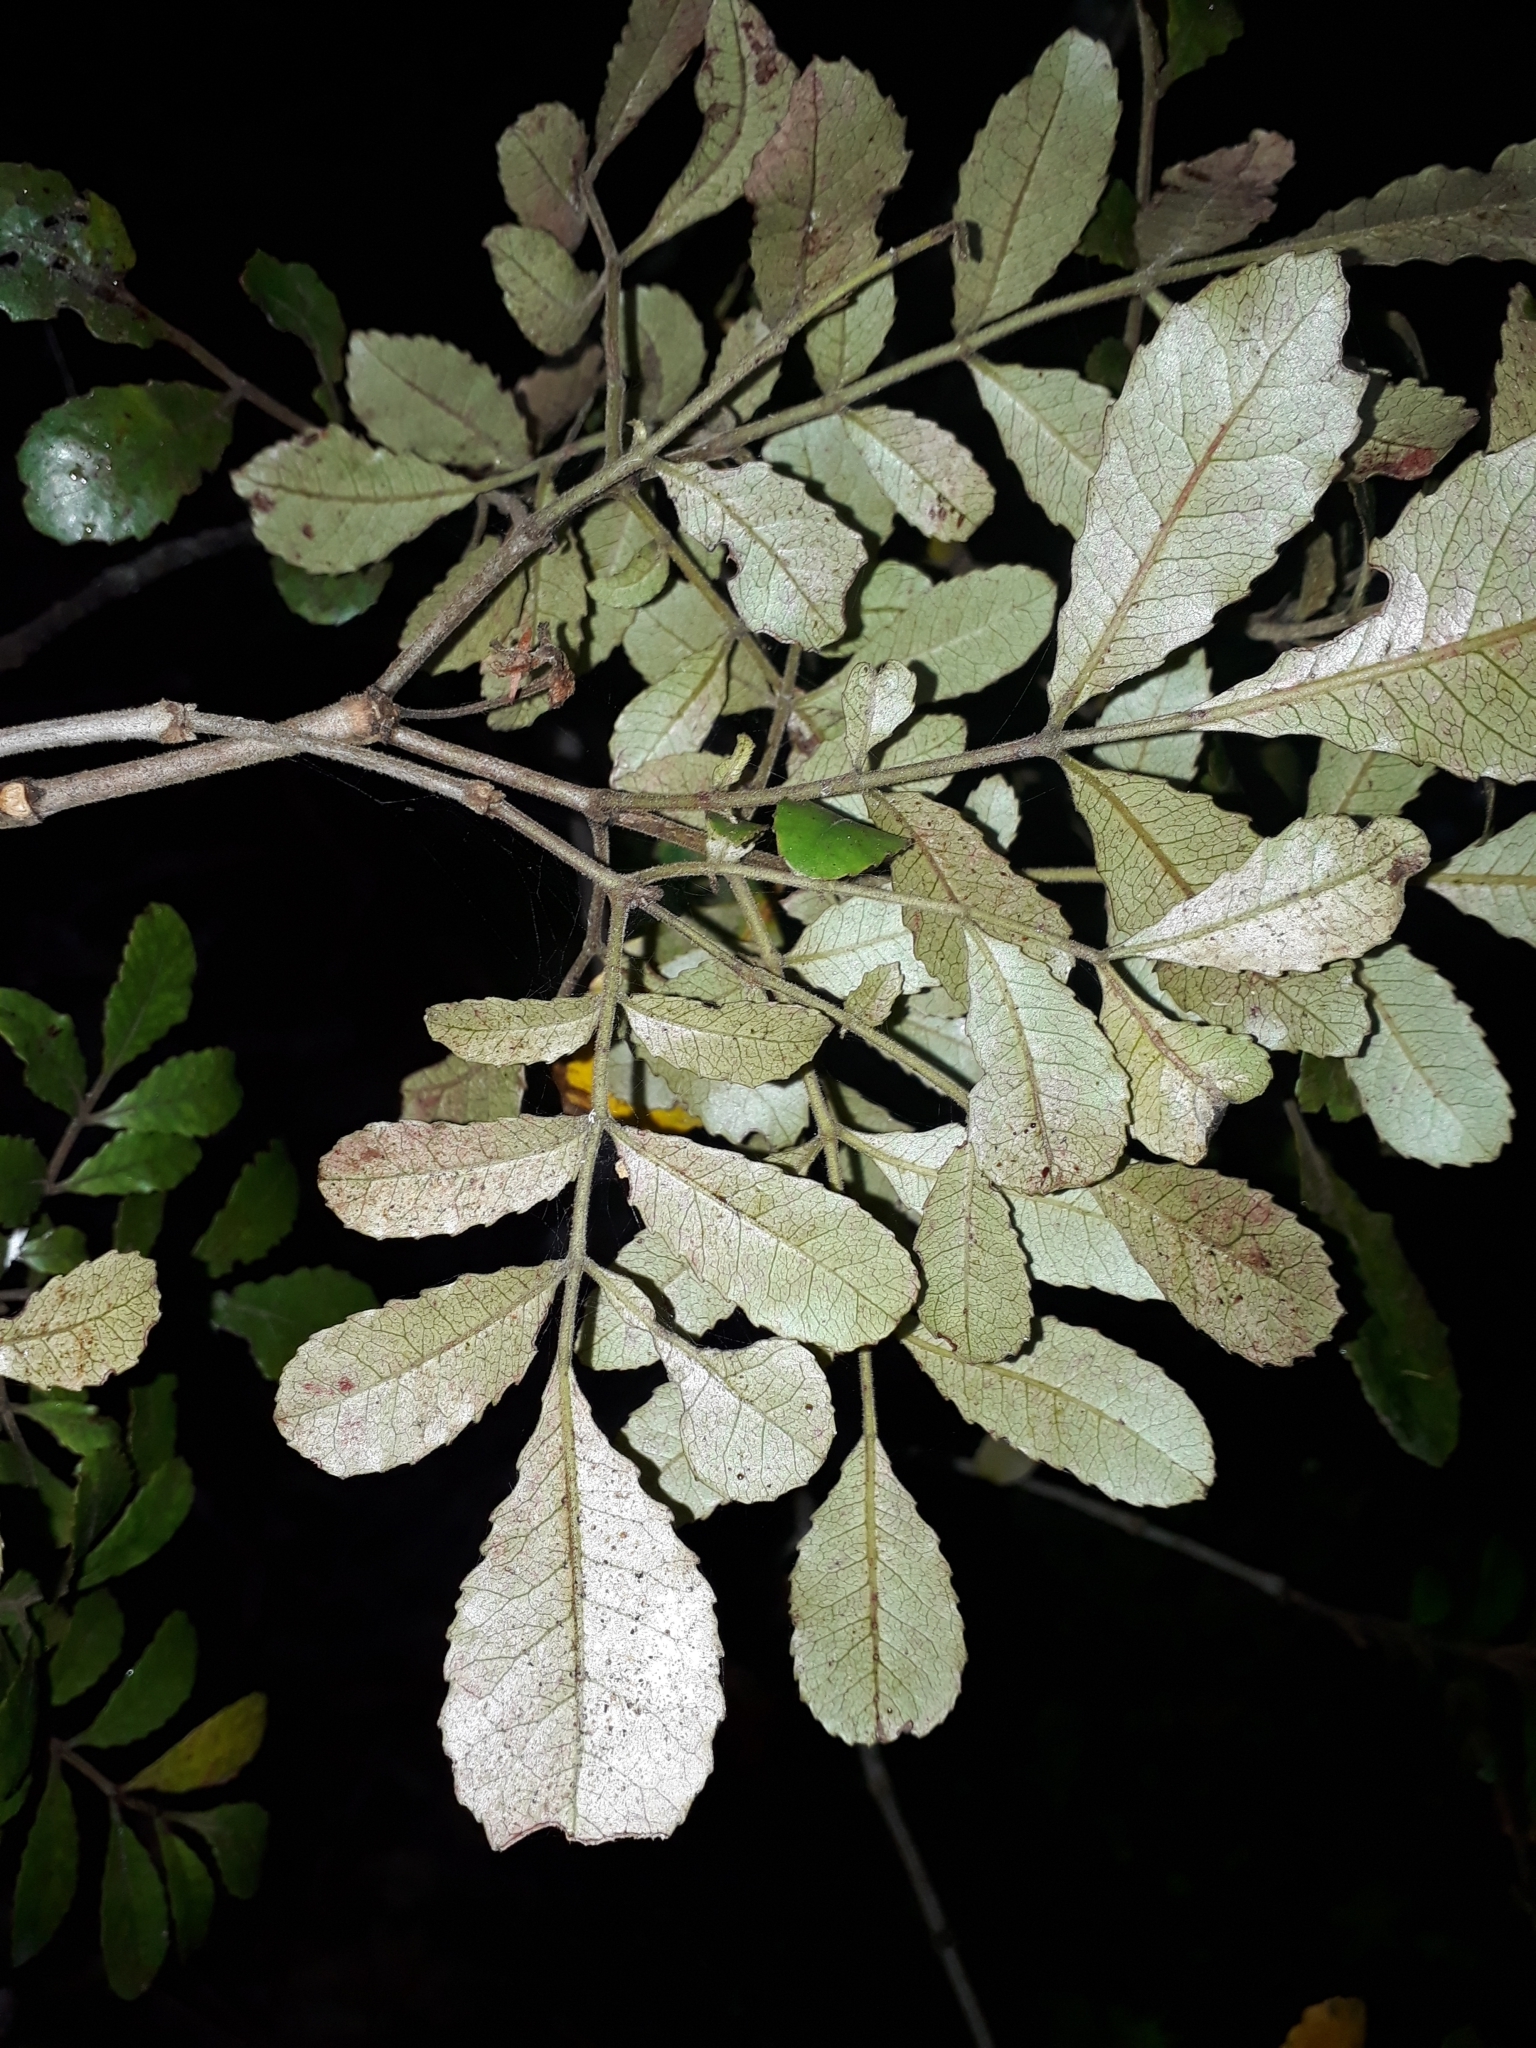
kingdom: Plantae
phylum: Tracheophyta
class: Magnoliopsida
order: Oxalidales
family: Cunoniaceae
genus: Pterophylla
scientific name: Pterophylla sylvicola
